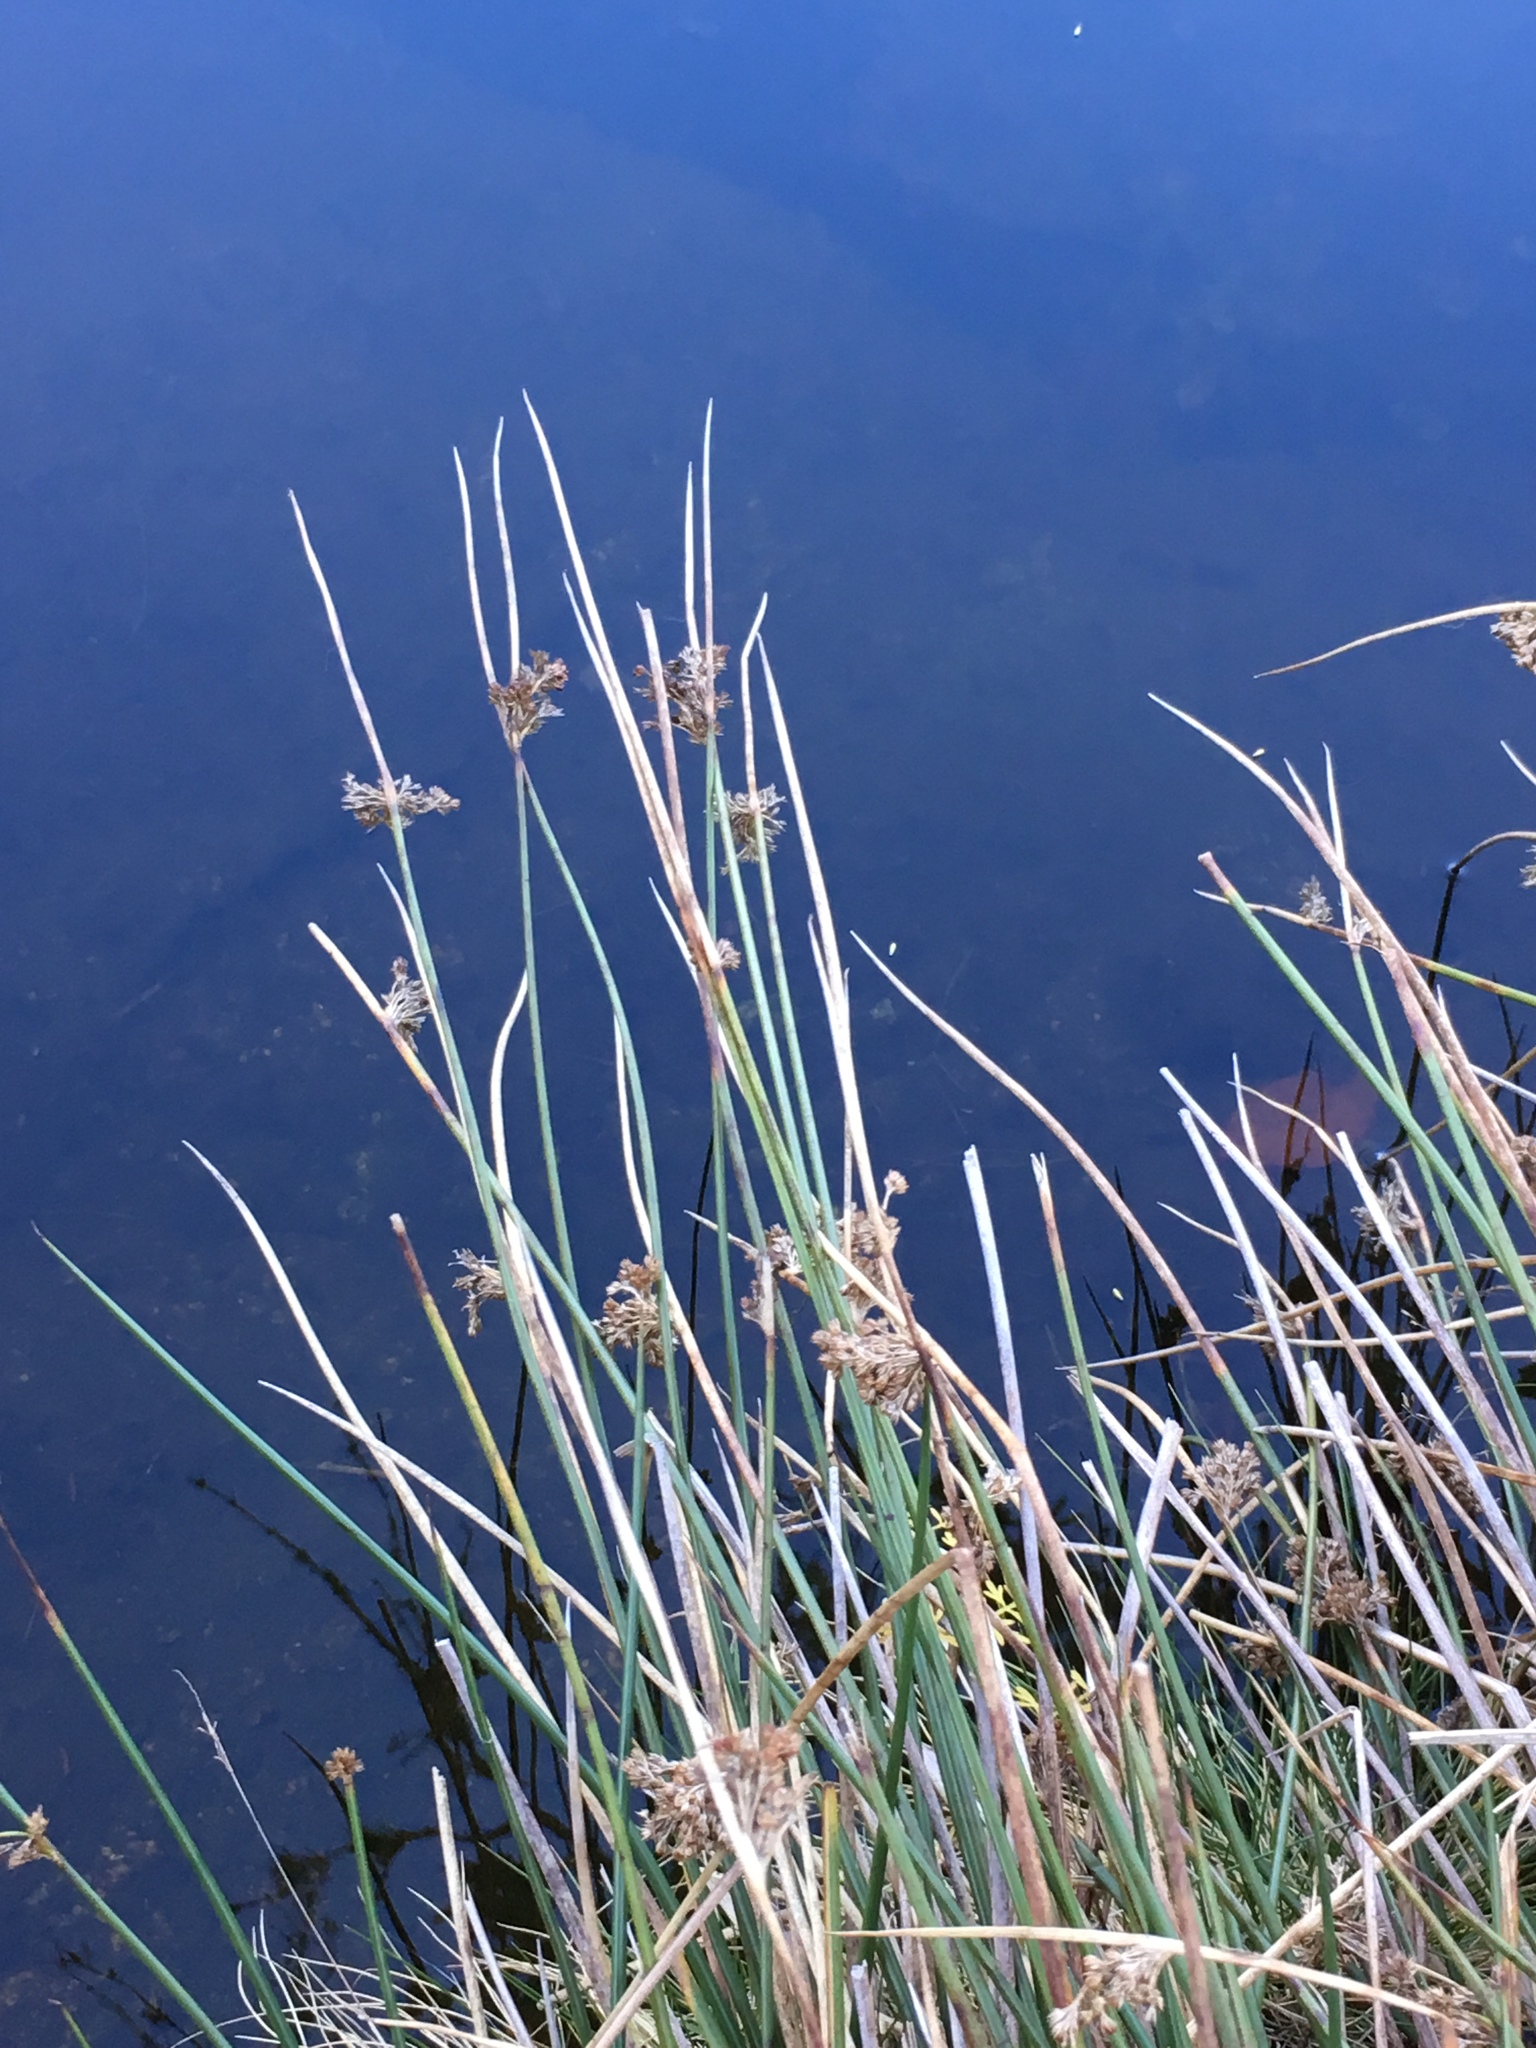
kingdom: Plantae
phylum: Tracheophyta
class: Liliopsida
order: Poales
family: Juncaceae
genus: Juncus
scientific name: Juncus effusus
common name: Soft rush
